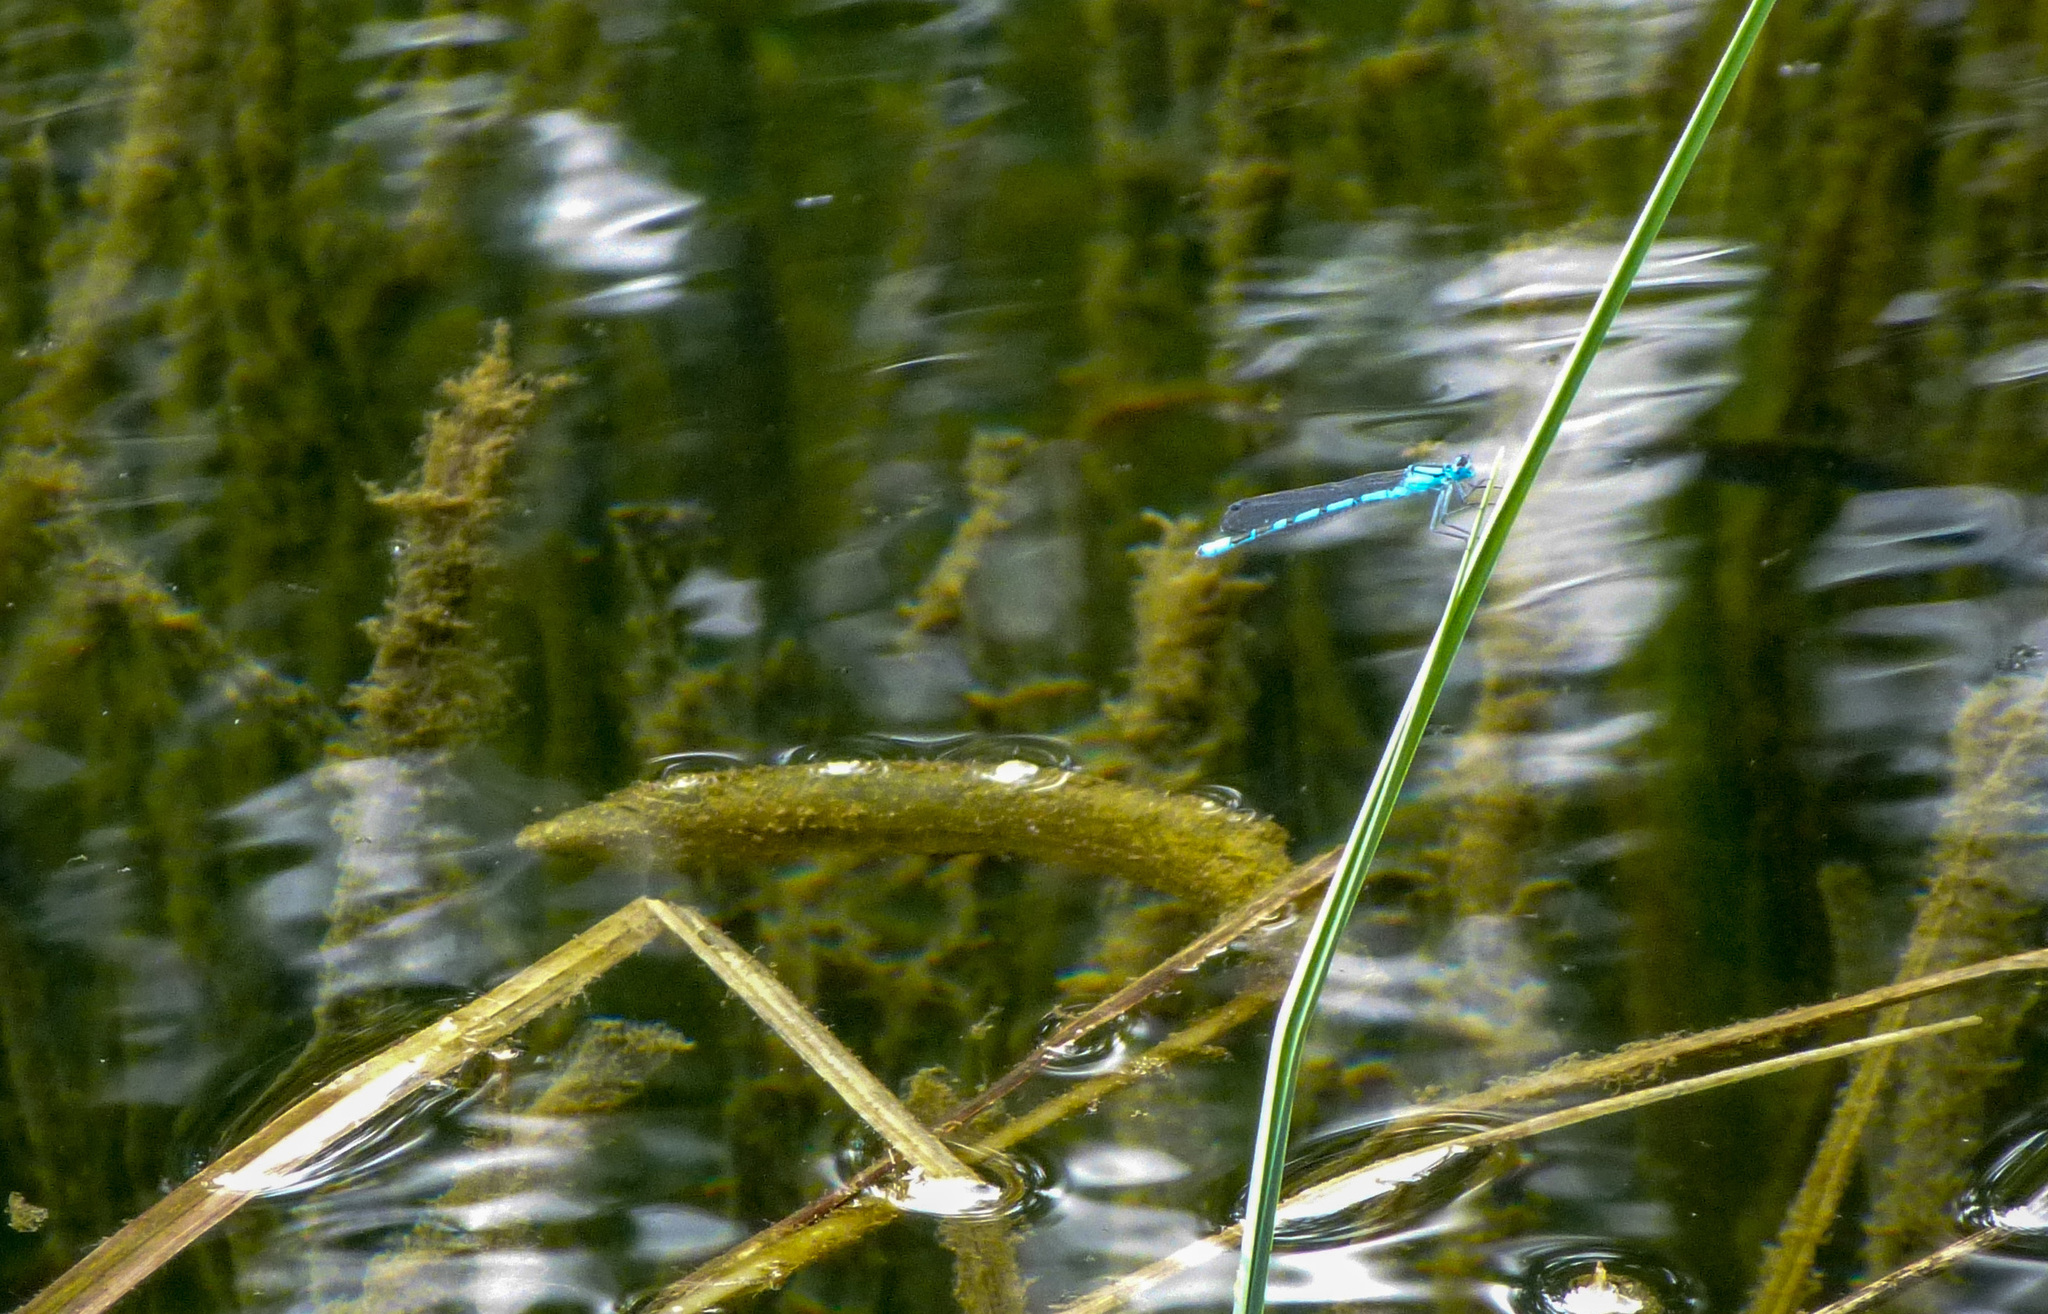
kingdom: Animalia
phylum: Arthropoda
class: Insecta
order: Odonata
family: Coenagrionidae
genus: Enallagma
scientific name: Enallagma cyathigerum
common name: Common blue damselfly
